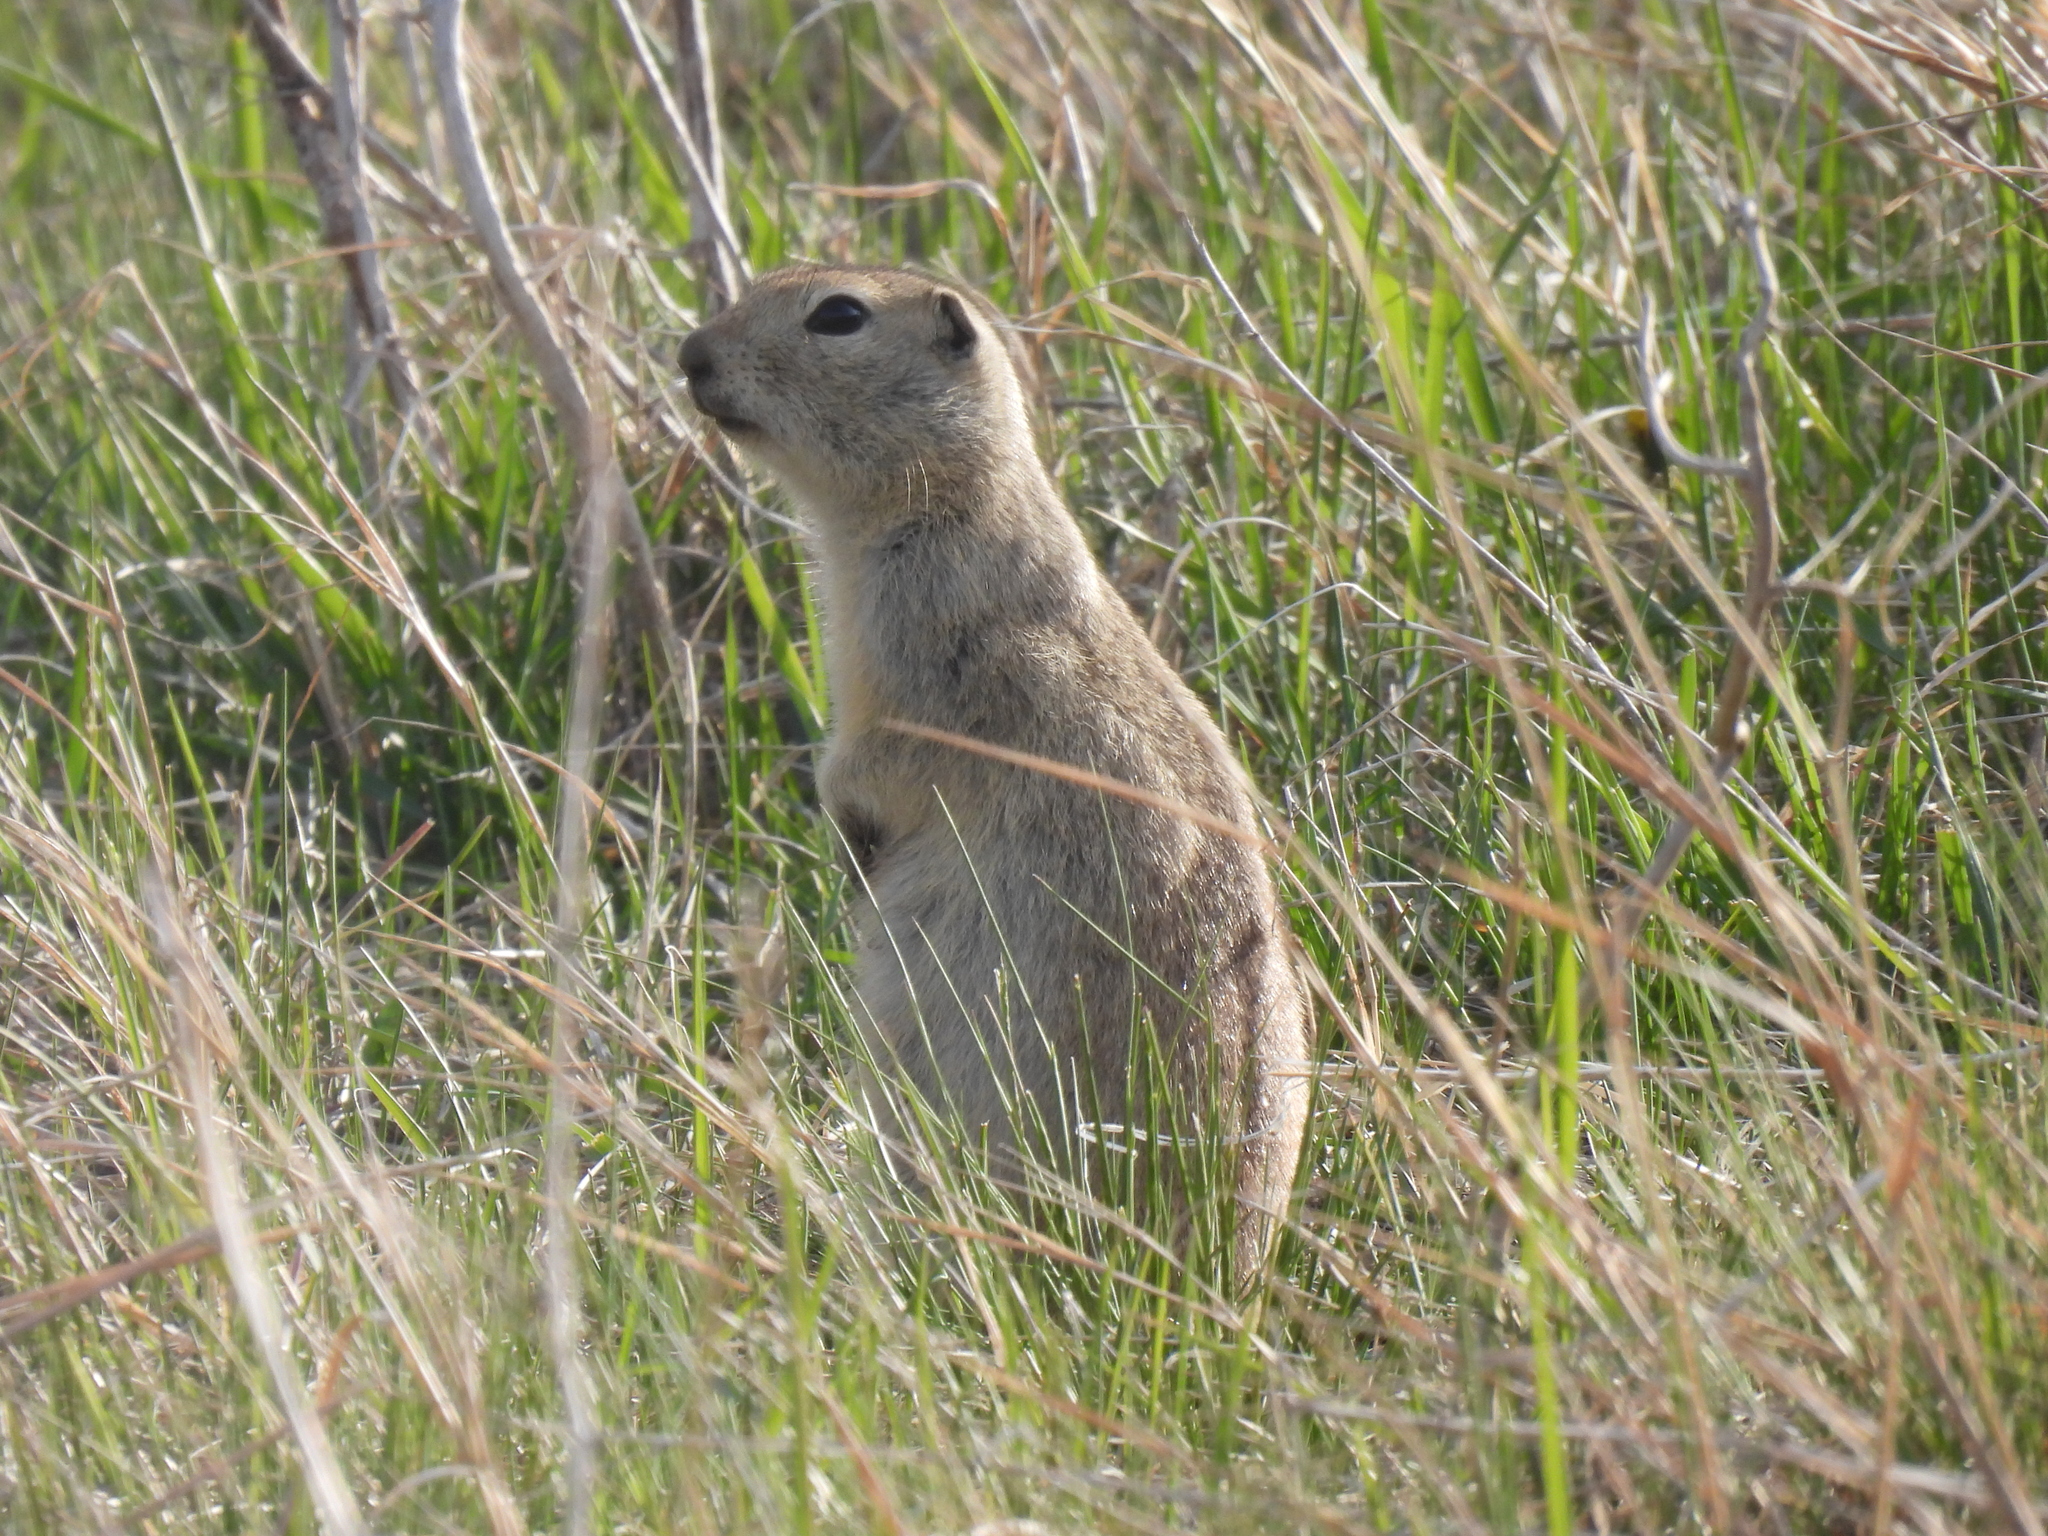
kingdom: Animalia
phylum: Chordata
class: Mammalia
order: Rodentia
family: Sciuridae
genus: Urocitellus
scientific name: Urocitellus richardsonii
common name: Richardson's ground squirrel
